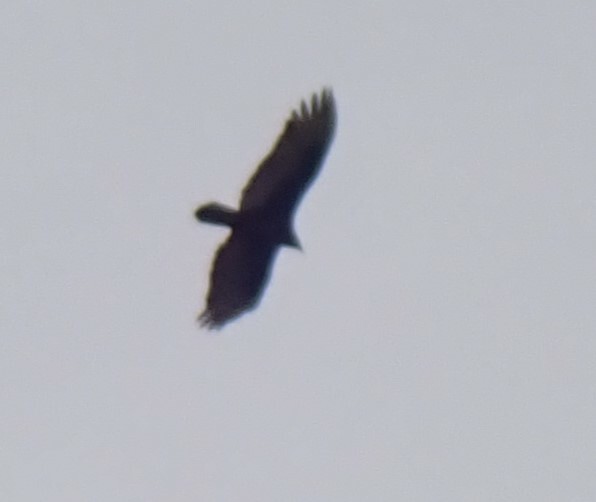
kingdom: Animalia
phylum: Chordata
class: Aves
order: Accipitriformes
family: Cathartidae
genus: Cathartes
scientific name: Cathartes aura
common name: Turkey vulture
